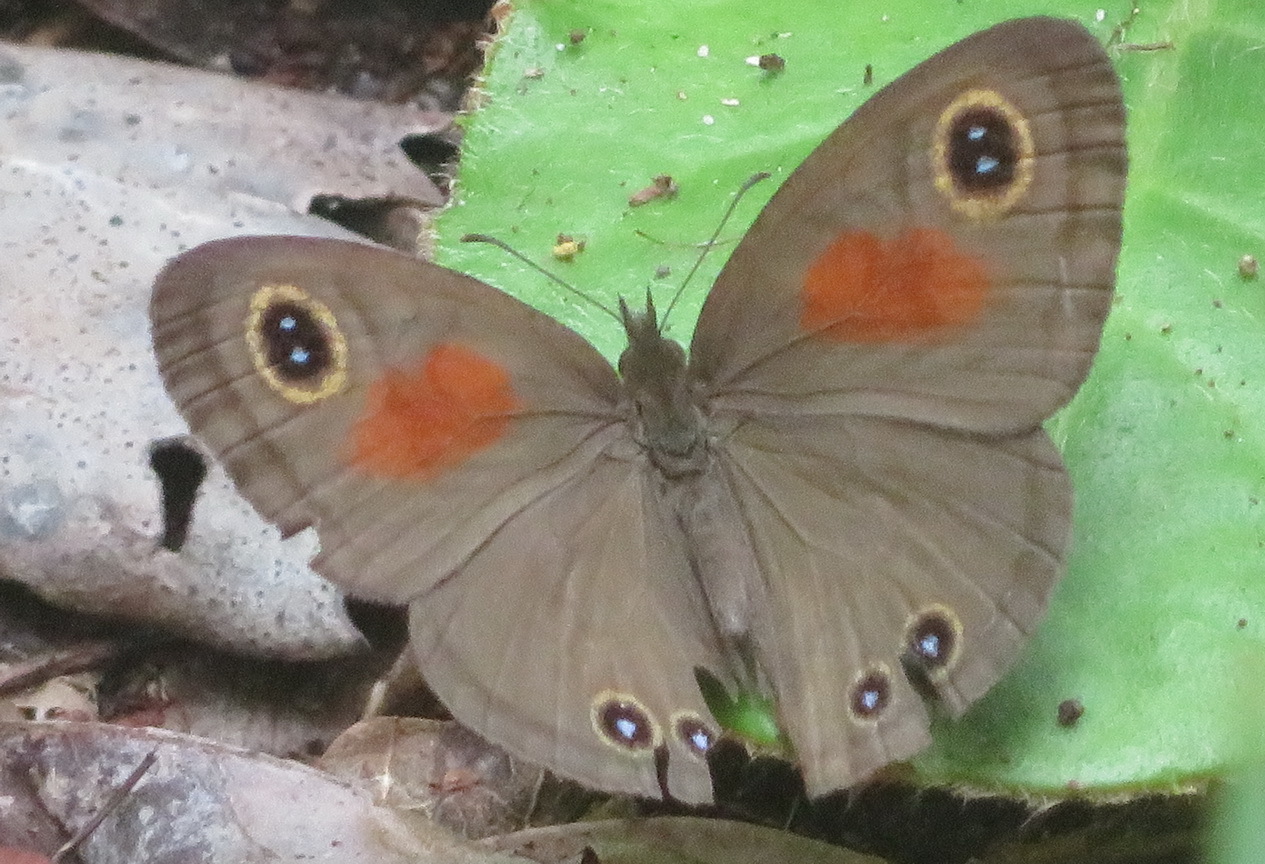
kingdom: Animalia
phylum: Arthropoda
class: Insecta
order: Lepidoptera
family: Nymphalidae
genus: Cassionympha
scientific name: Cassionympha cassius
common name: Rainforest brown
